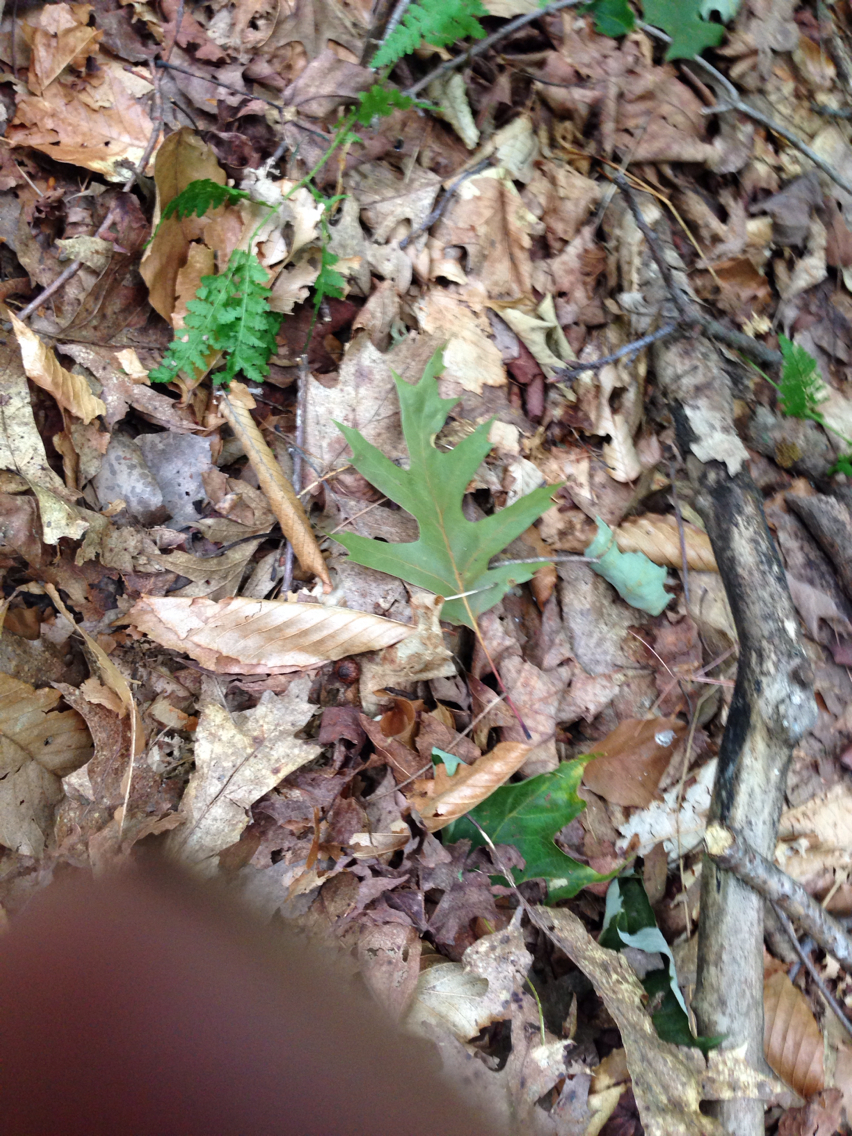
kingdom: Plantae
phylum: Tracheophyta
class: Magnoliopsida
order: Fagales
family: Fagaceae
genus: Quercus
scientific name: Quercus rubra
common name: Red oak
